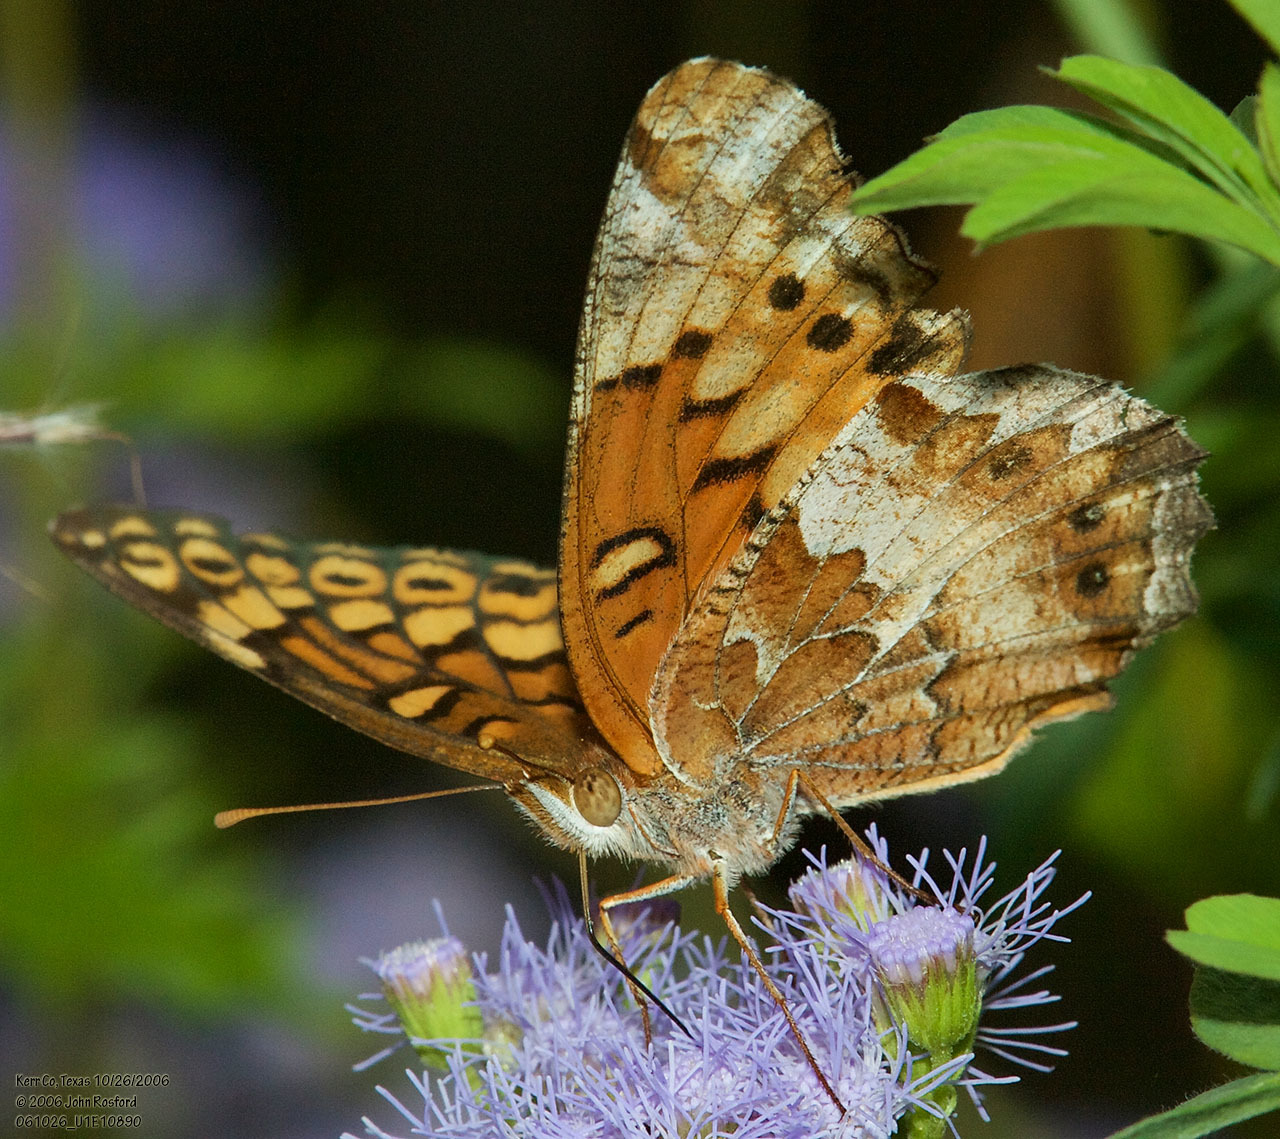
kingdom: Animalia
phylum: Arthropoda
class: Insecta
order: Lepidoptera
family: Nymphalidae
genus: Euptoieta
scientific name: Euptoieta claudia
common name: Variegated fritillary
